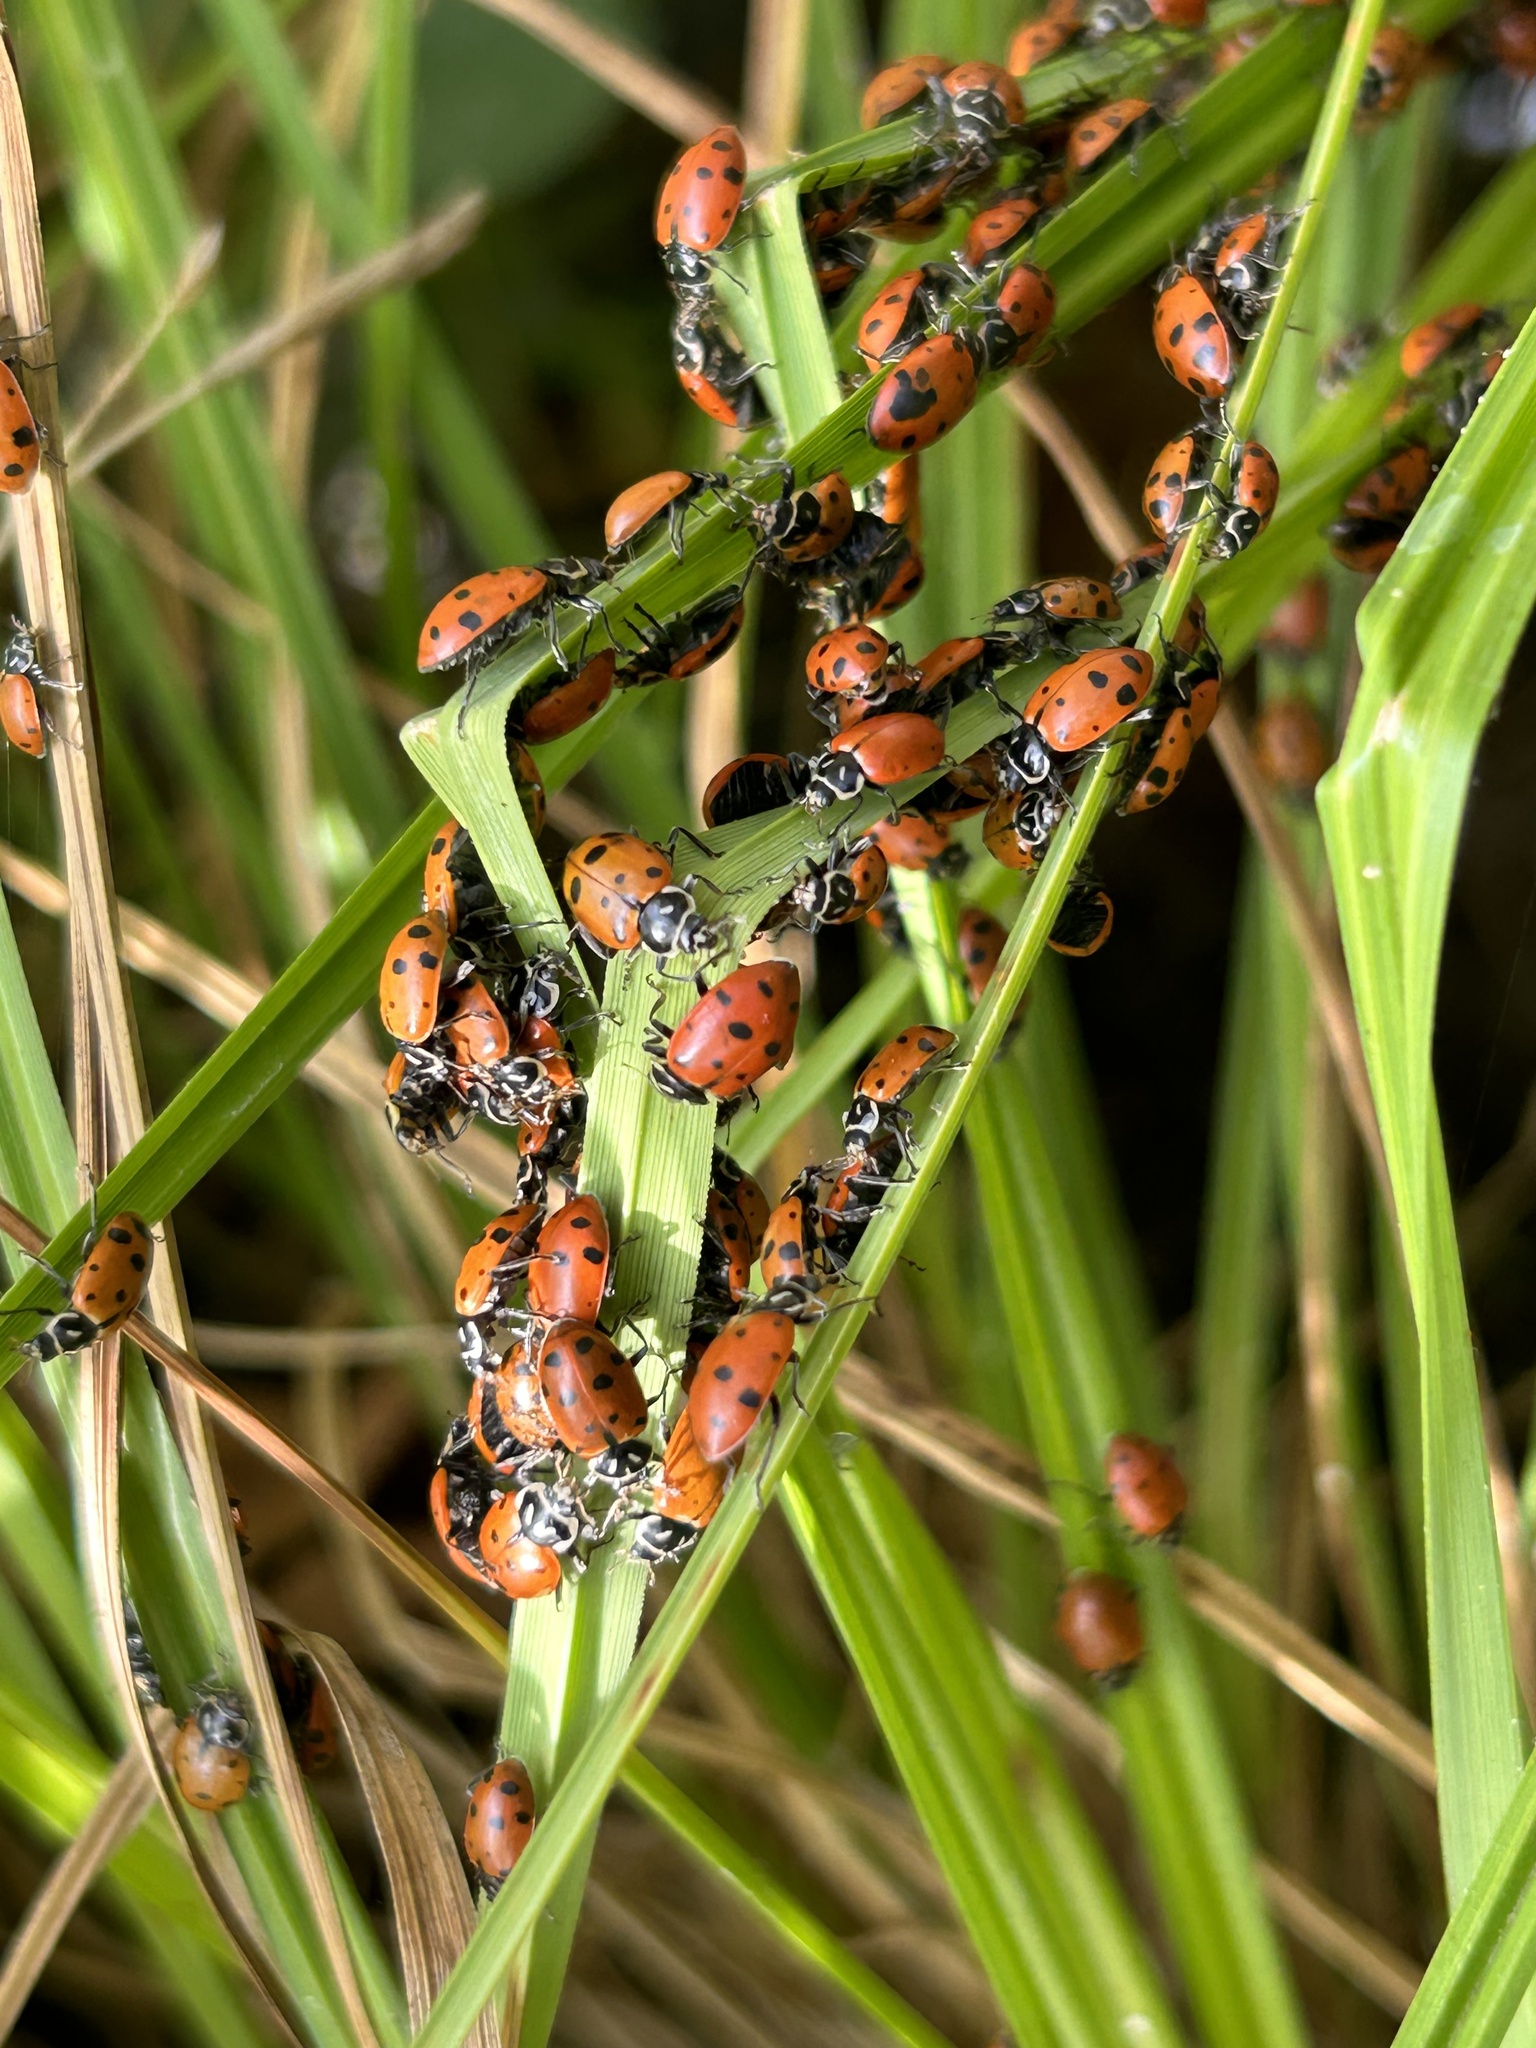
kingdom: Animalia
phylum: Arthropoda
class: Insecta
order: Coleoptera
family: Coccinellidae
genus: Hippodamia
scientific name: Hippodamia convergens
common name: Convergent lady beetle
